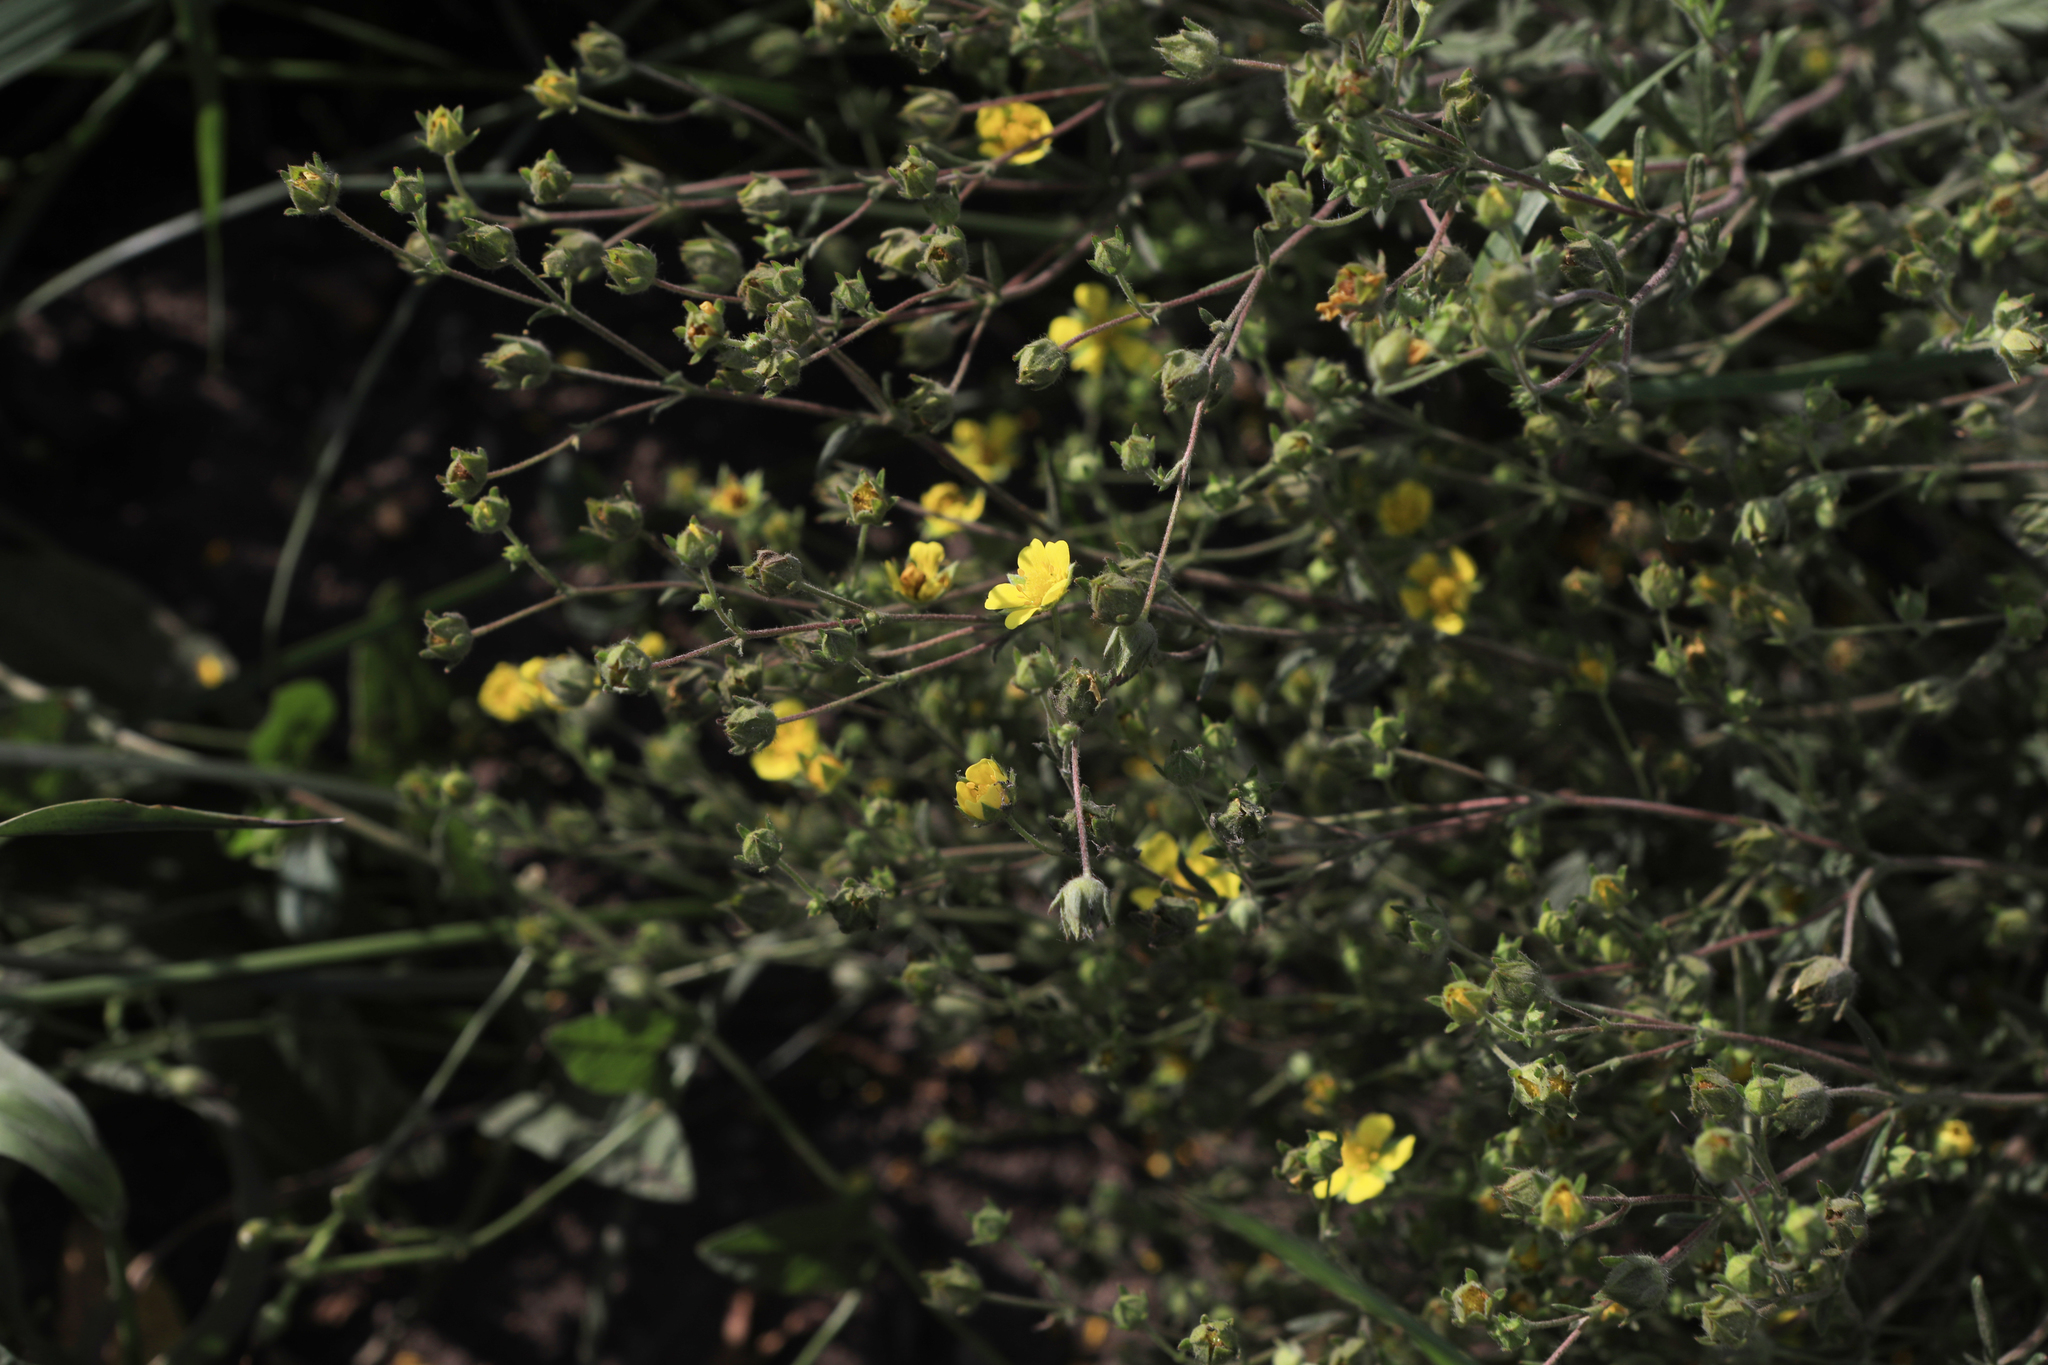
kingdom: Plantae
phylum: Tracheophyta
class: Magnoliopsida
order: Rosales
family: Rosaceae
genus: Potentilla
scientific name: Potentilla argentea
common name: Hoary cinquefoil
